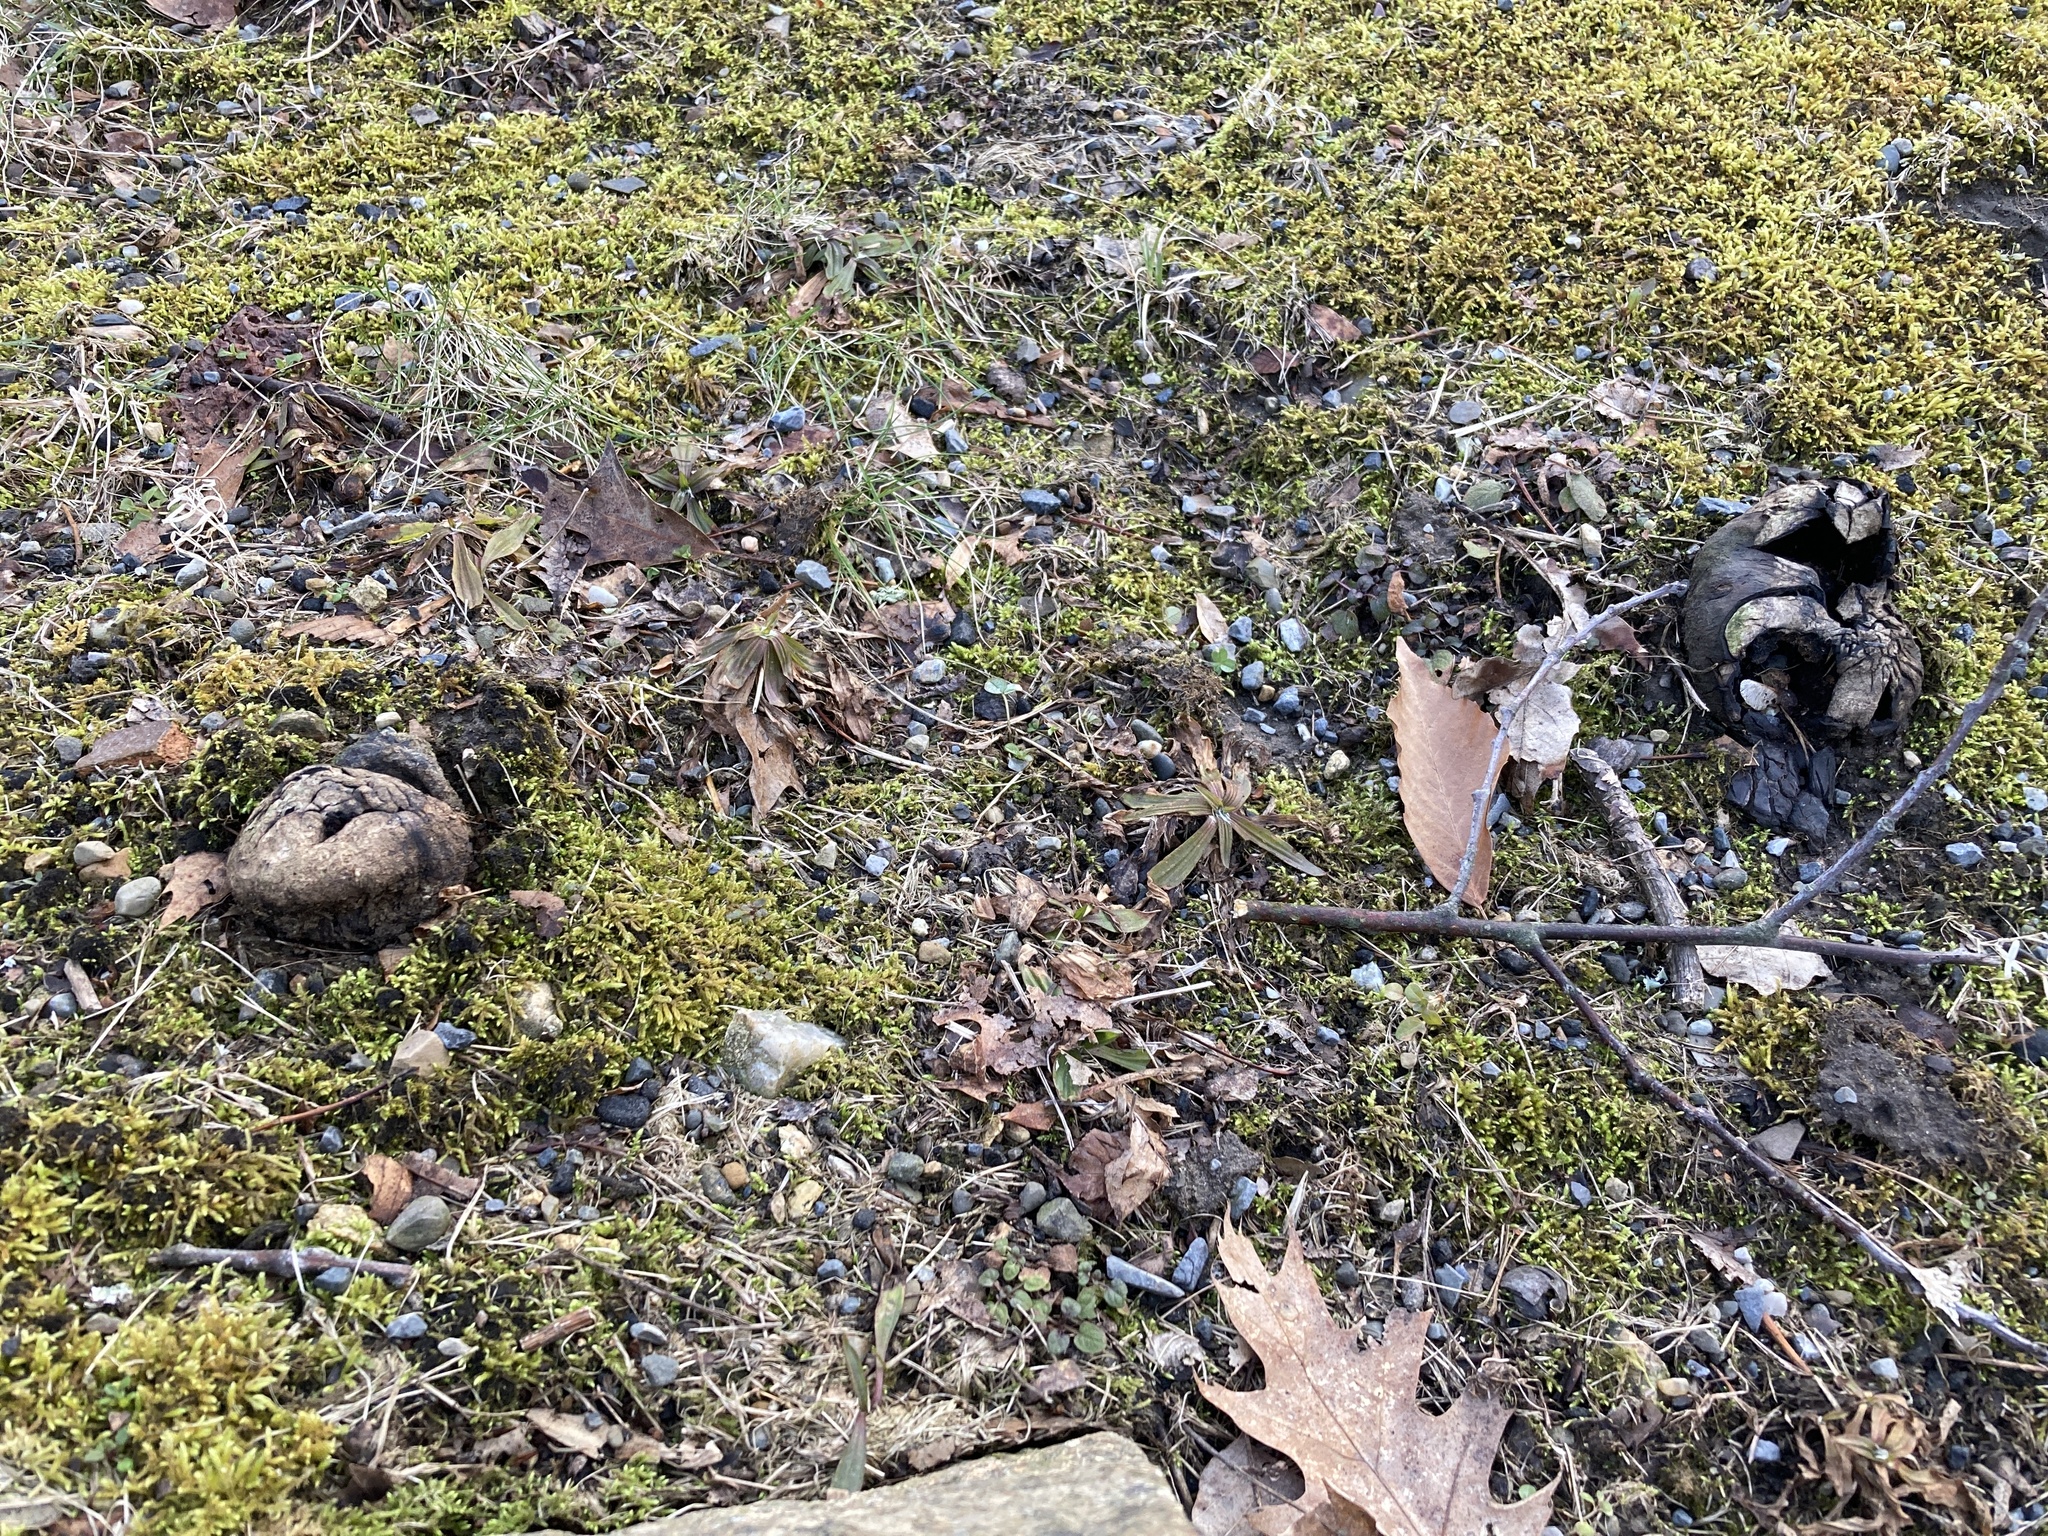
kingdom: Fungi
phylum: Basidiomycota
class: Agaricomycetes
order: Boletales
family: Sclerodermataceae
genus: Scleroderma
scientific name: Scleroderma polyrhizum
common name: Many-rooted earthball
